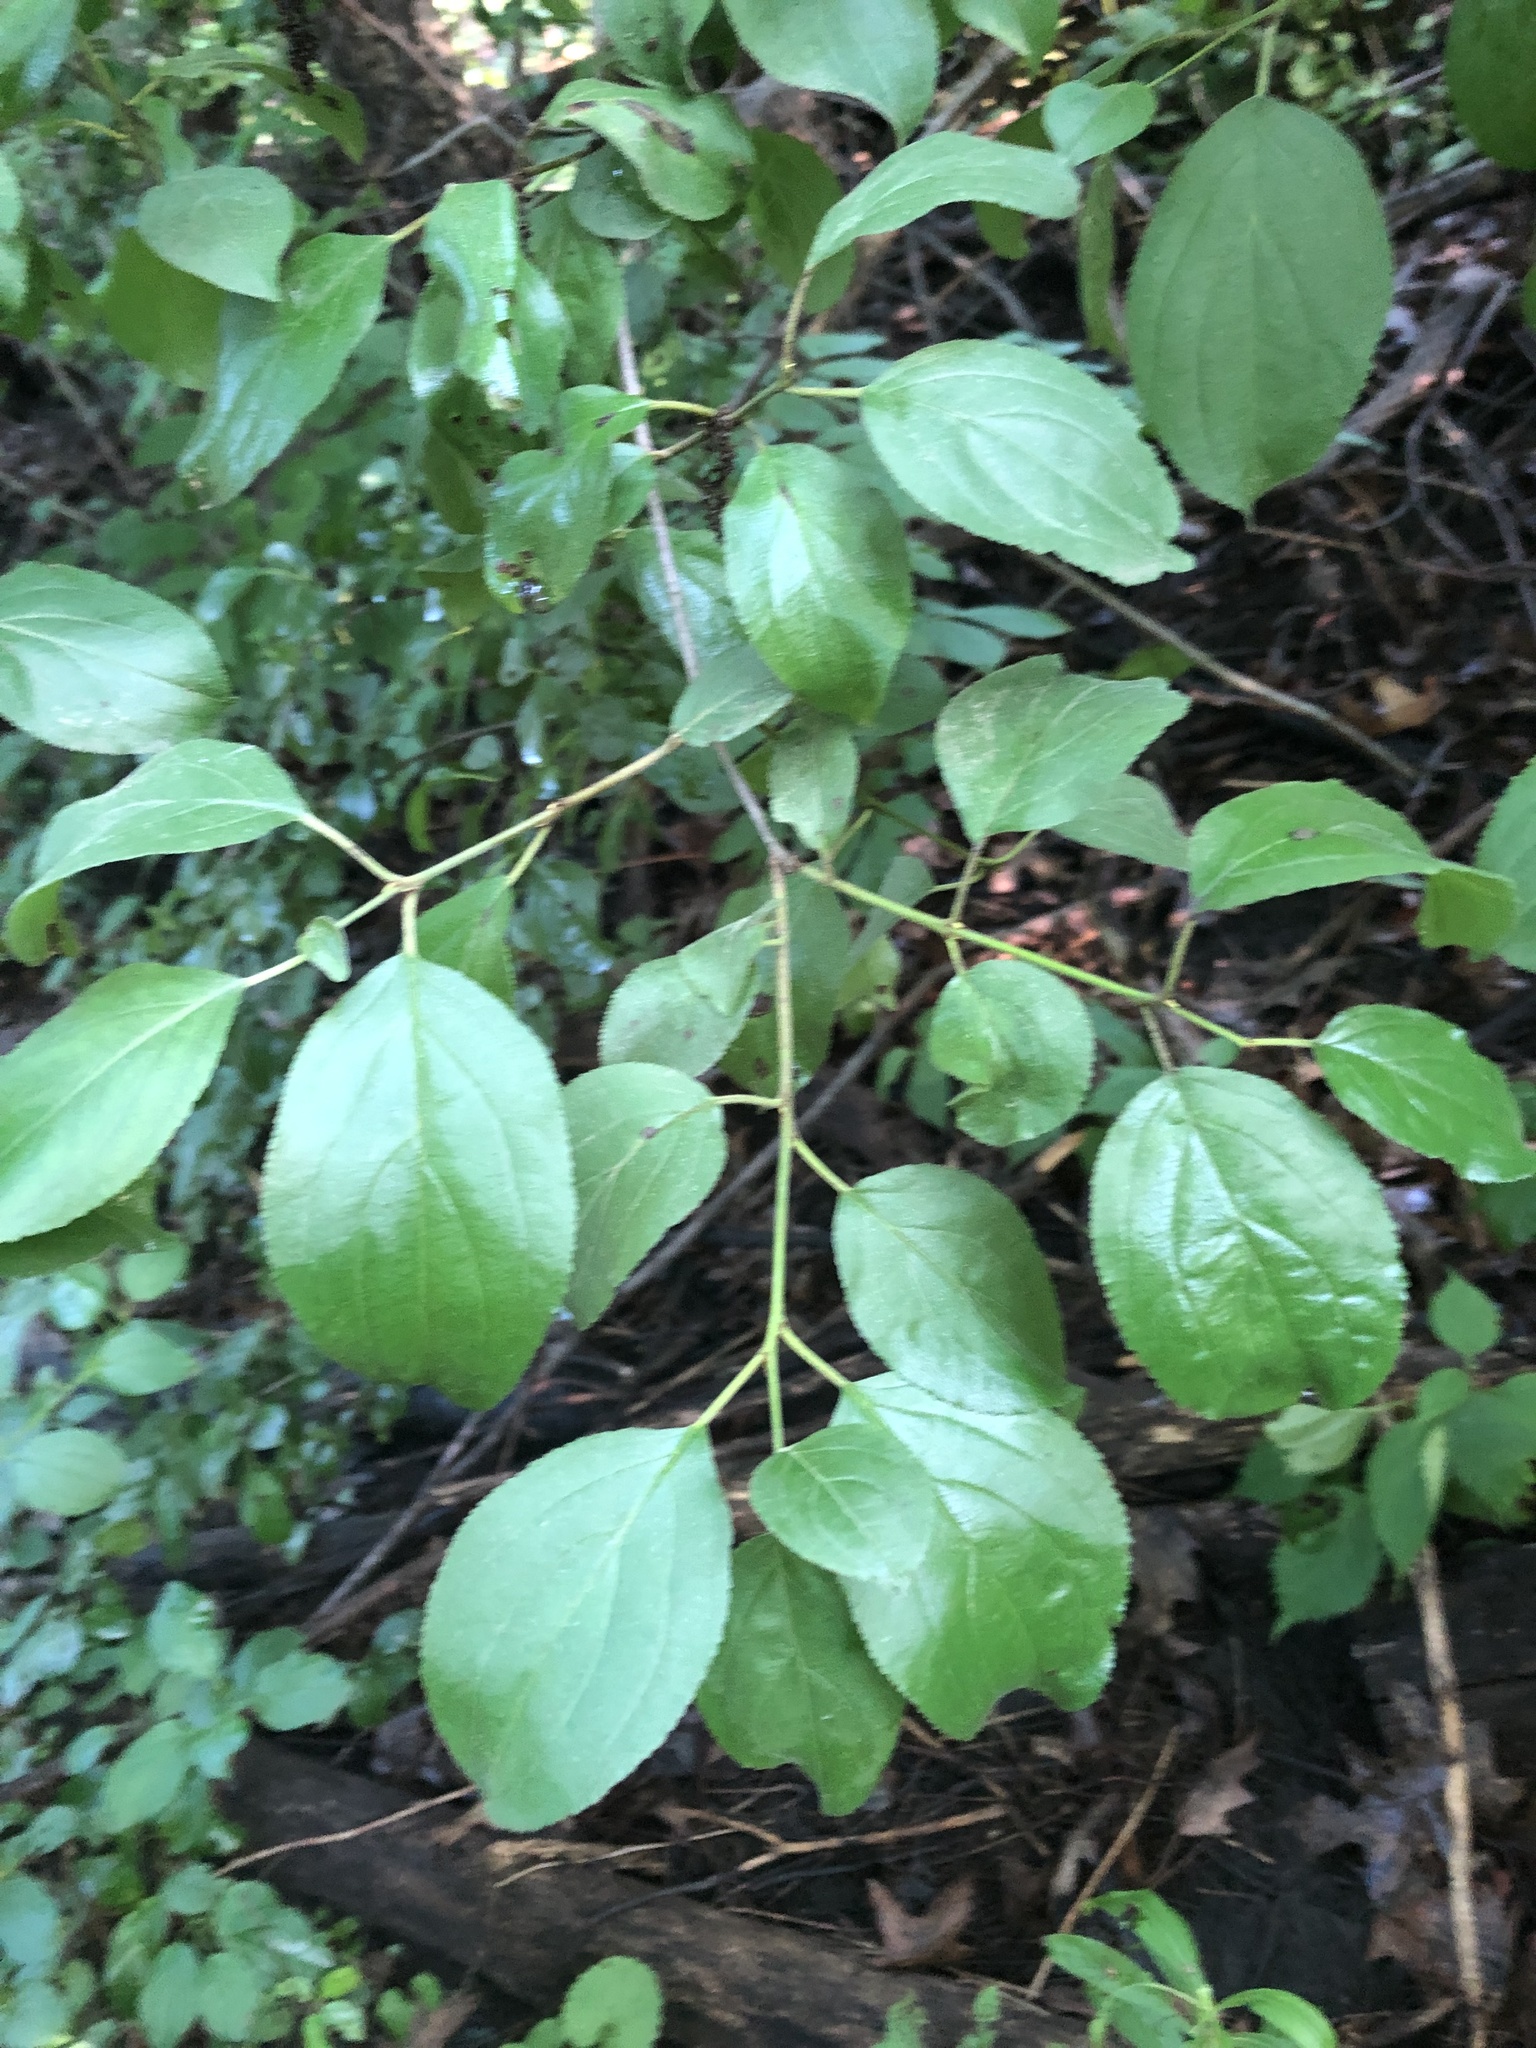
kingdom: Plantae
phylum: Tracheophyta
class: Magnoliopsida
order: Rosales
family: Rhamnaceae
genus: Rhamnus
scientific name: Rhamnus cathartica
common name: Common buckthorn
